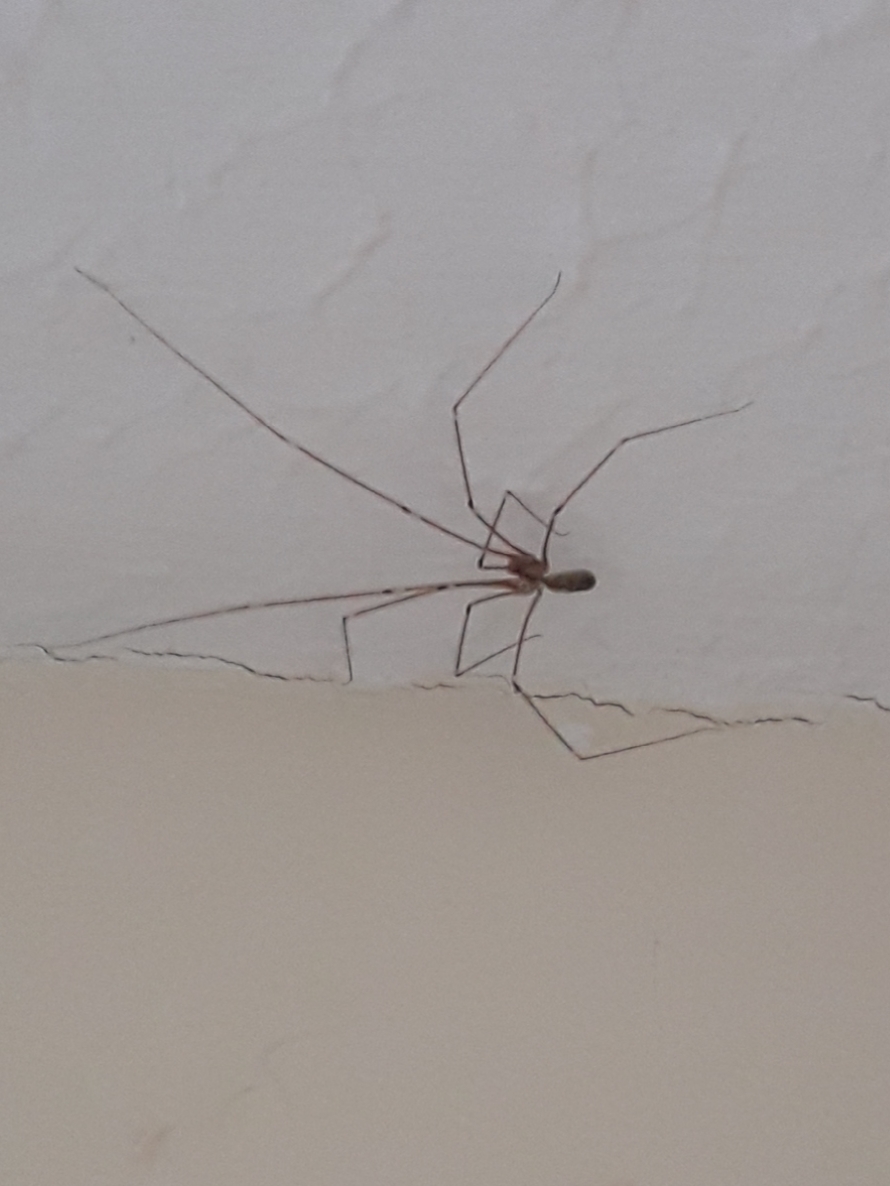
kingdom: Animalia
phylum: Arthropoda
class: Arachnida
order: Araneae
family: Pholcidae
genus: Pholcus
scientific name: Pholcus phalangioides
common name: Longbodied cellar spider
